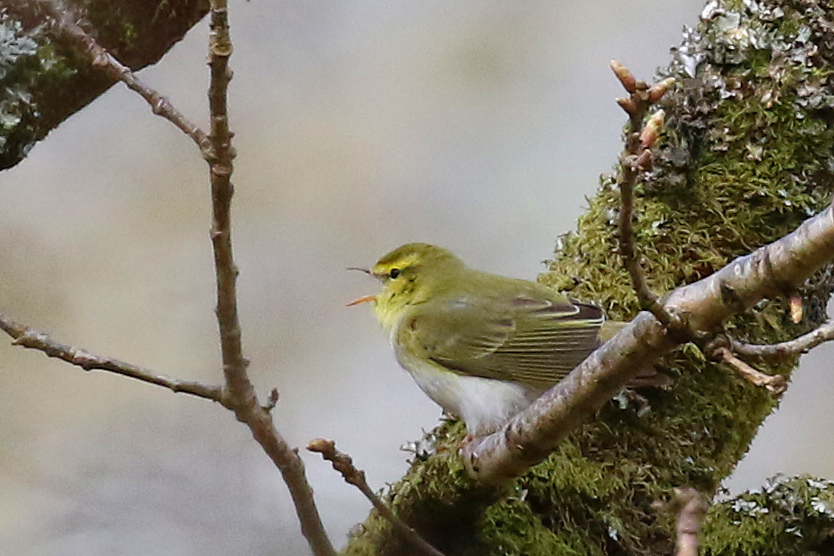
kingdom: Animalia
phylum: Chordata
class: Aves
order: Passeriformes
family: Phylloscopidae
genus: Phylloscopus
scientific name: Phylloscopus sibillatrix
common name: Wood warbler
